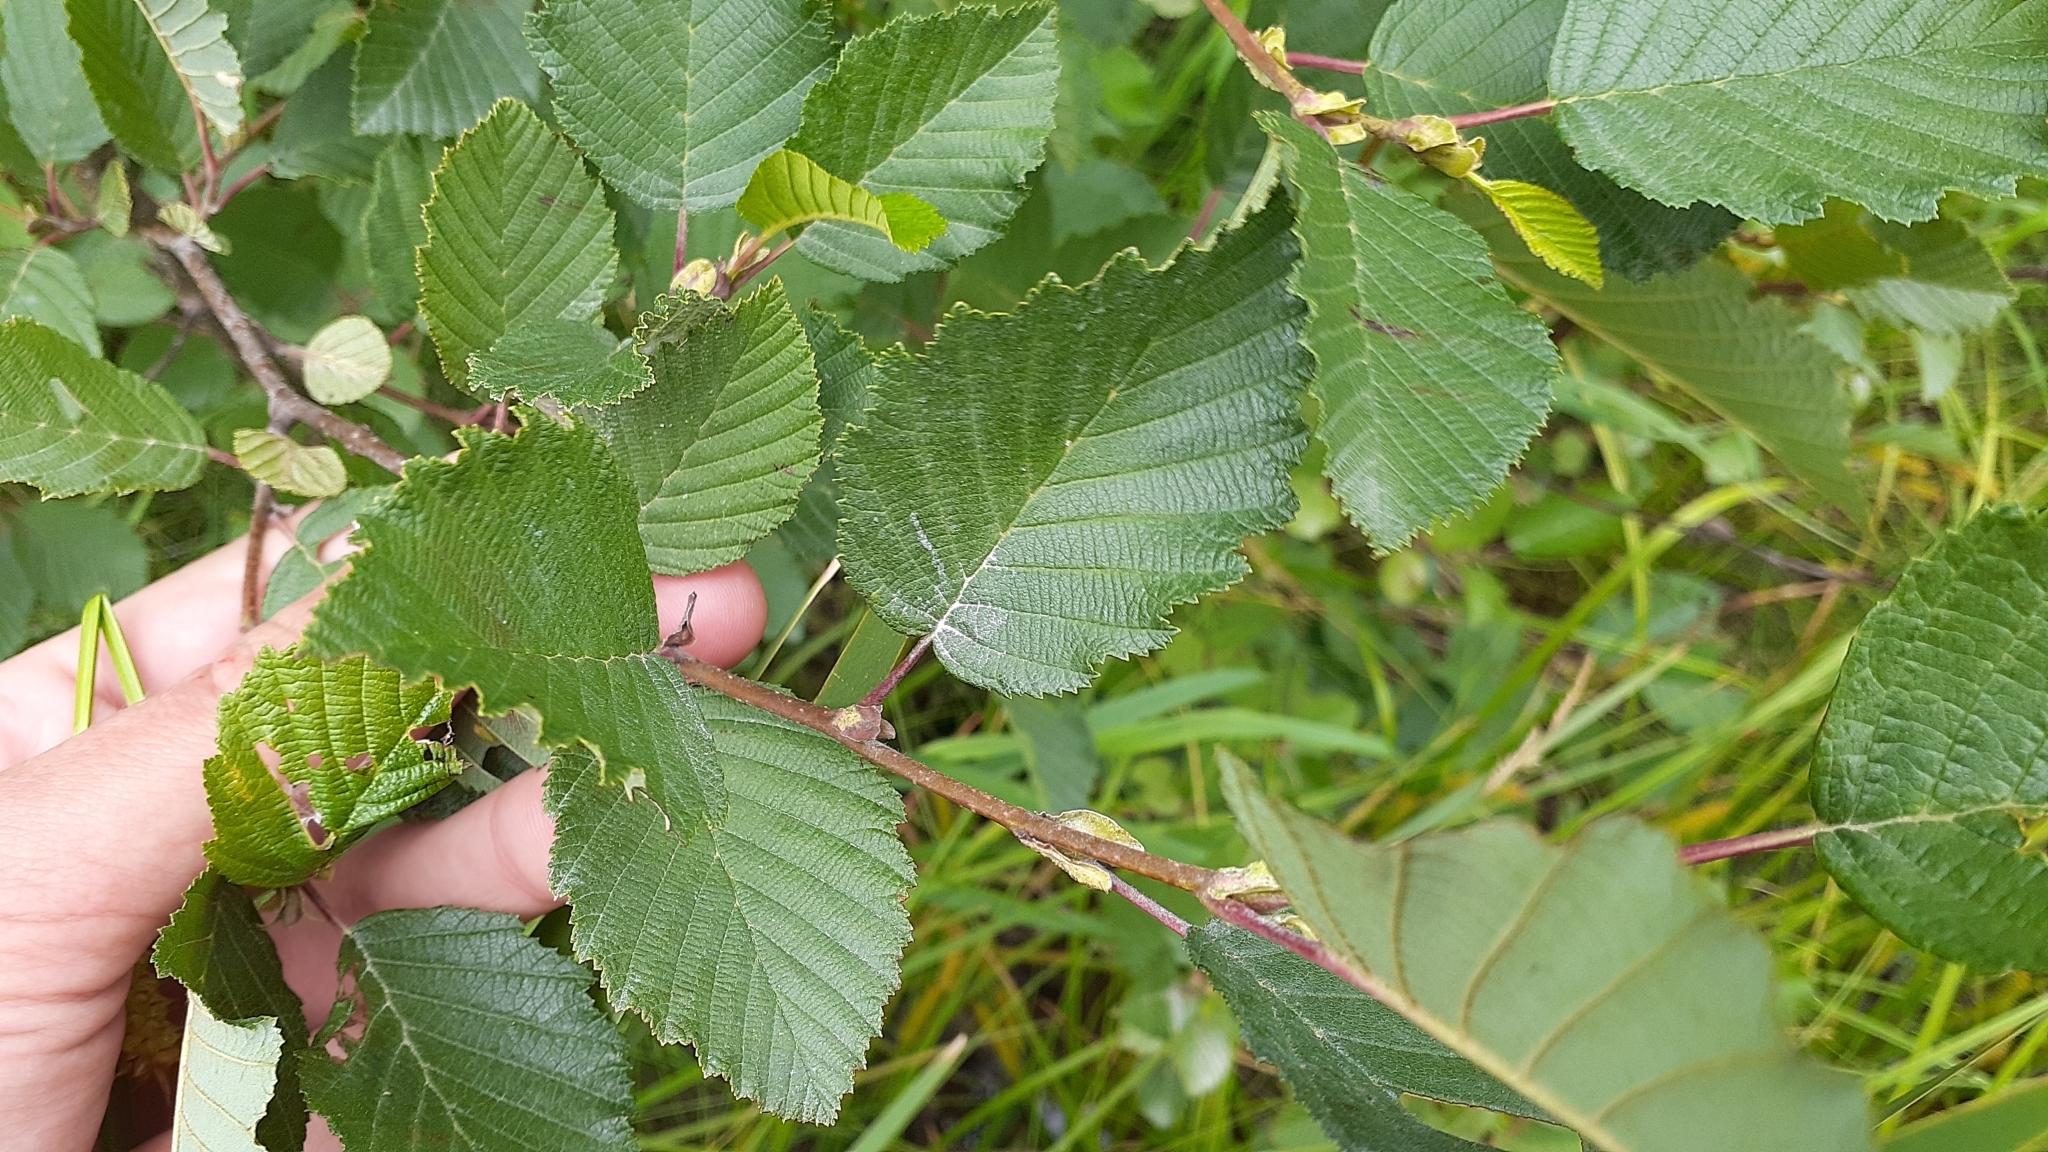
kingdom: Plantae
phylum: Tracheophyta
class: Magnoliopsida
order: Fagales
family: Betulaceae
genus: Alnus
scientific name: Alnus incana
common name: Grey alder
